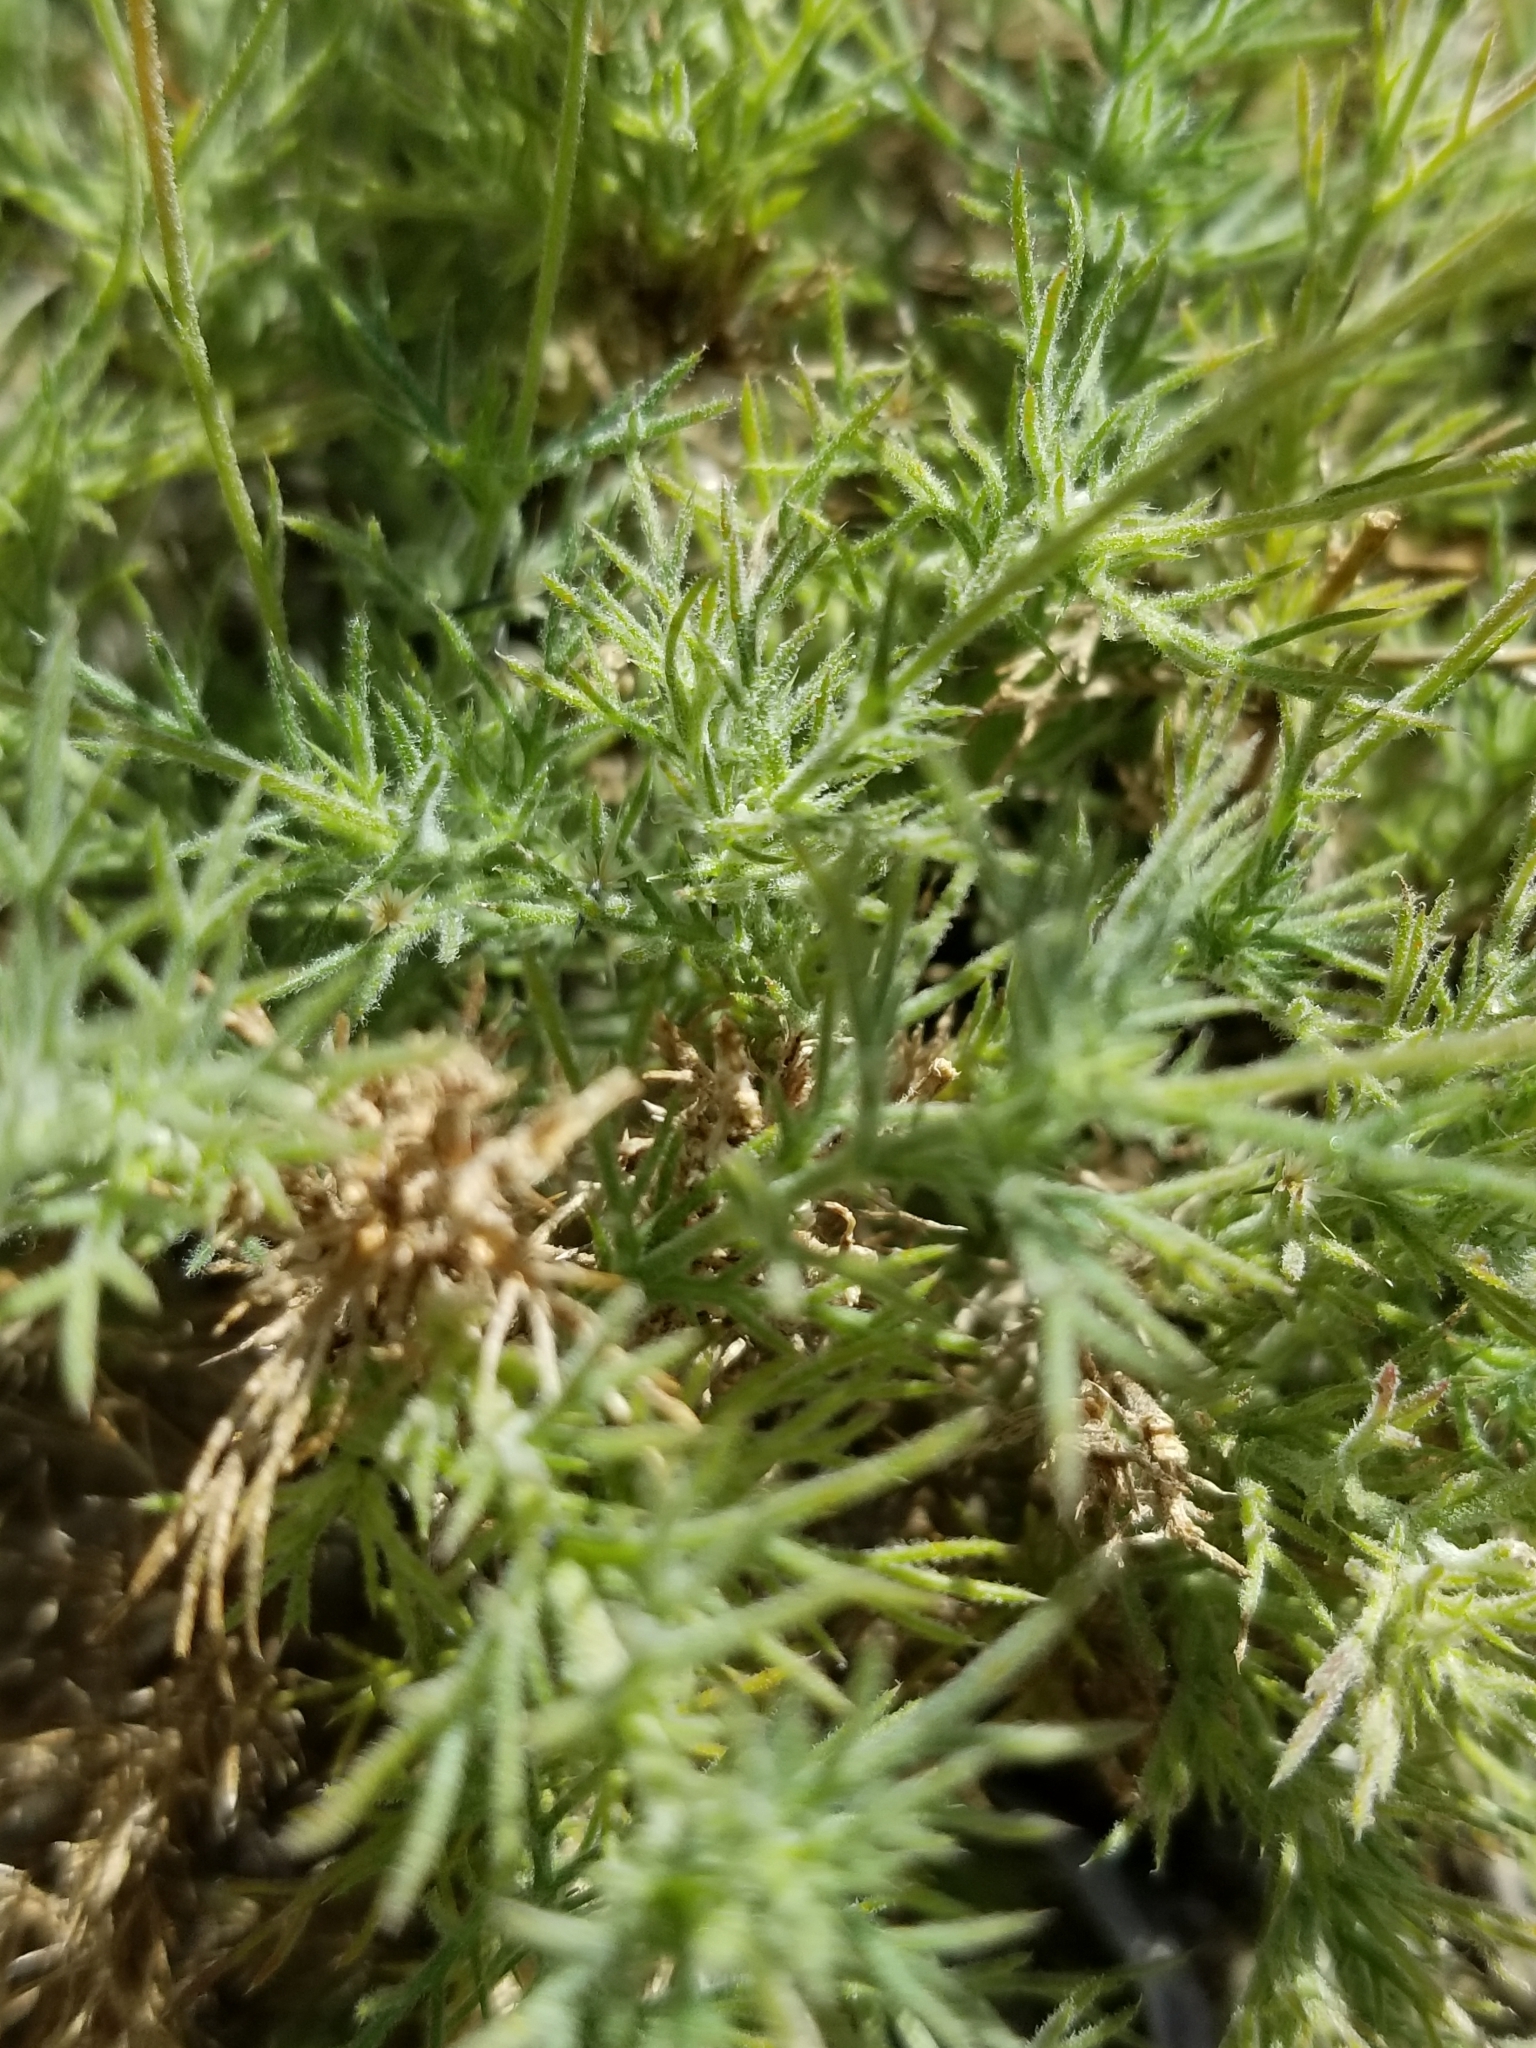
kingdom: Plantae
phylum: Tracheophyta
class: Magnoliopsida
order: Asterales
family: Asteraceae
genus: Thymophylla
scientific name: Thymophylla pentachaeta
